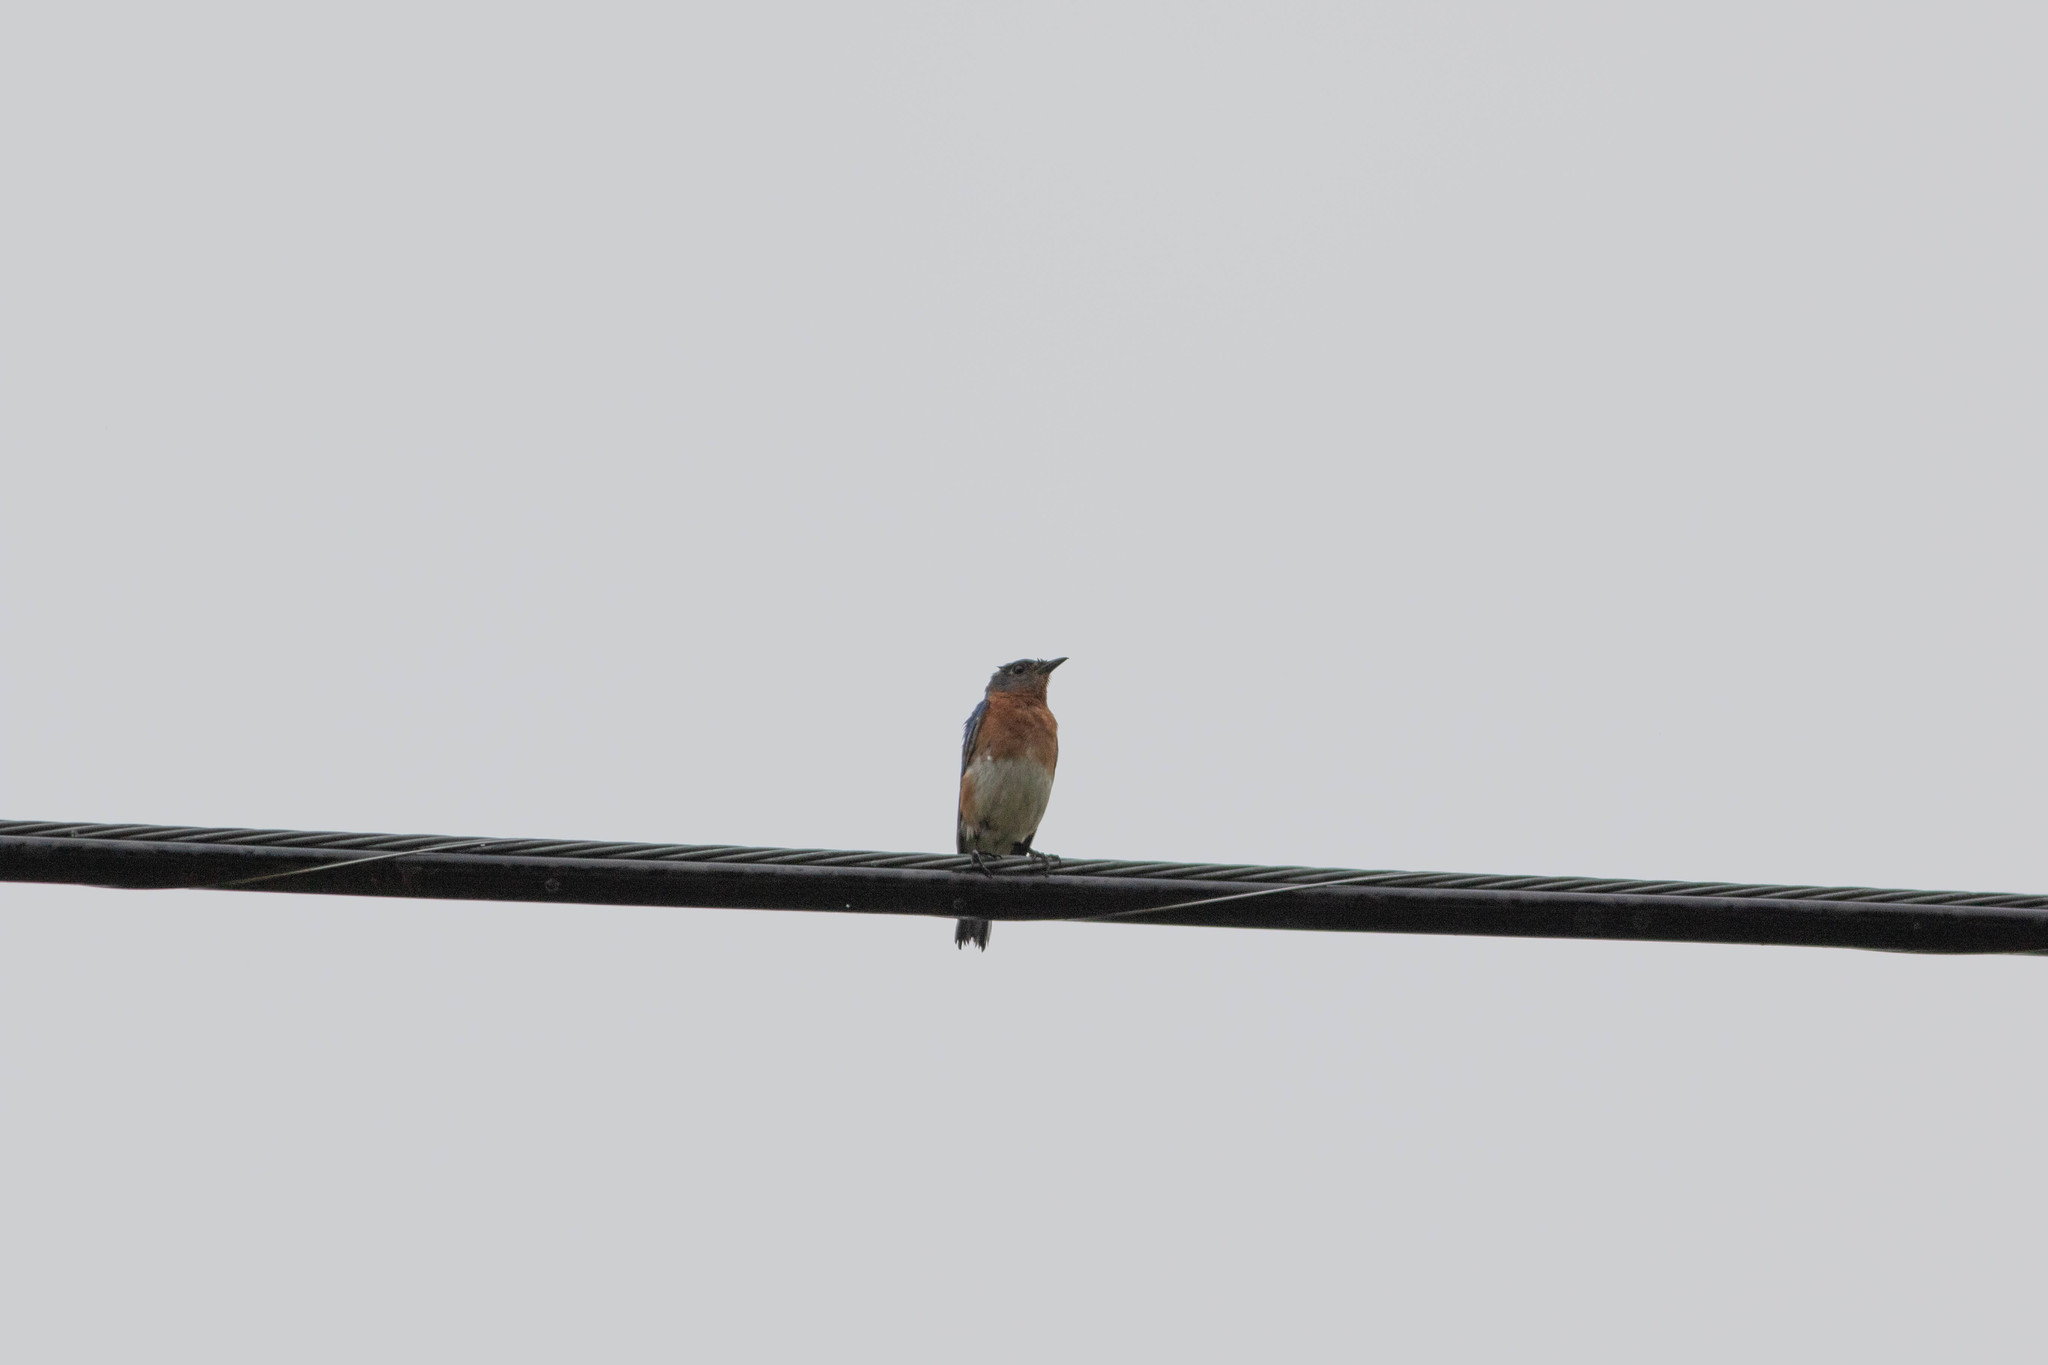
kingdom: Animalia
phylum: Chordata
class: Aves
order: Passeriformes
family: Turdidae
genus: Sialia
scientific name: Sialia sialis
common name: Eastern bluebird
